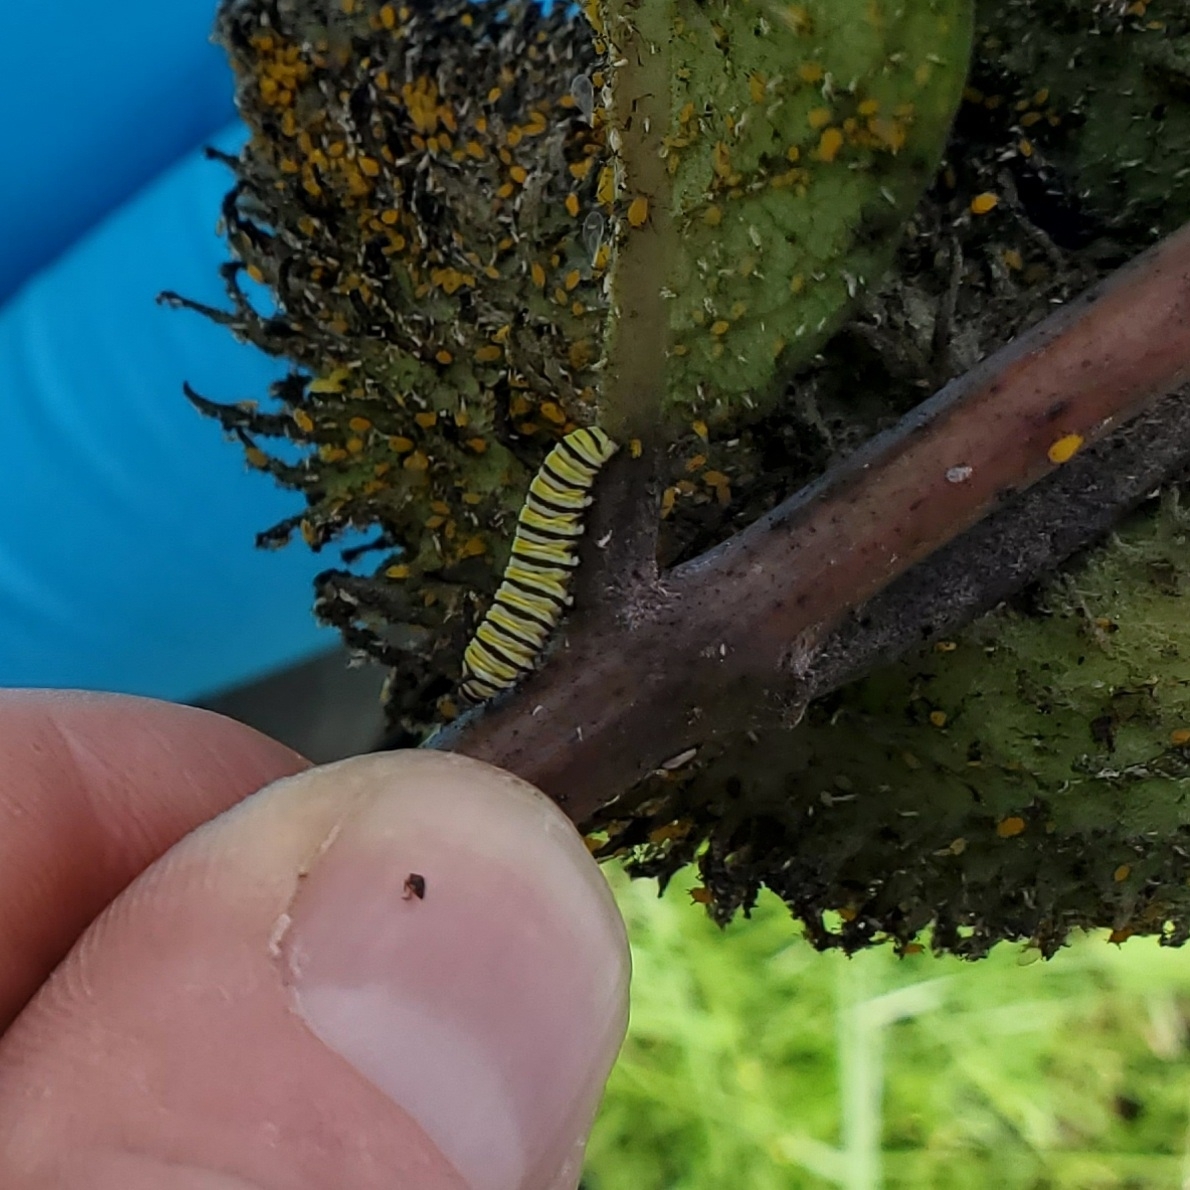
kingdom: Animalia
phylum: Arthropoda
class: Insecta
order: Lepidoptera
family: Nymphalidae
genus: Danaus
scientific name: Danaus plexippus
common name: Monarch
